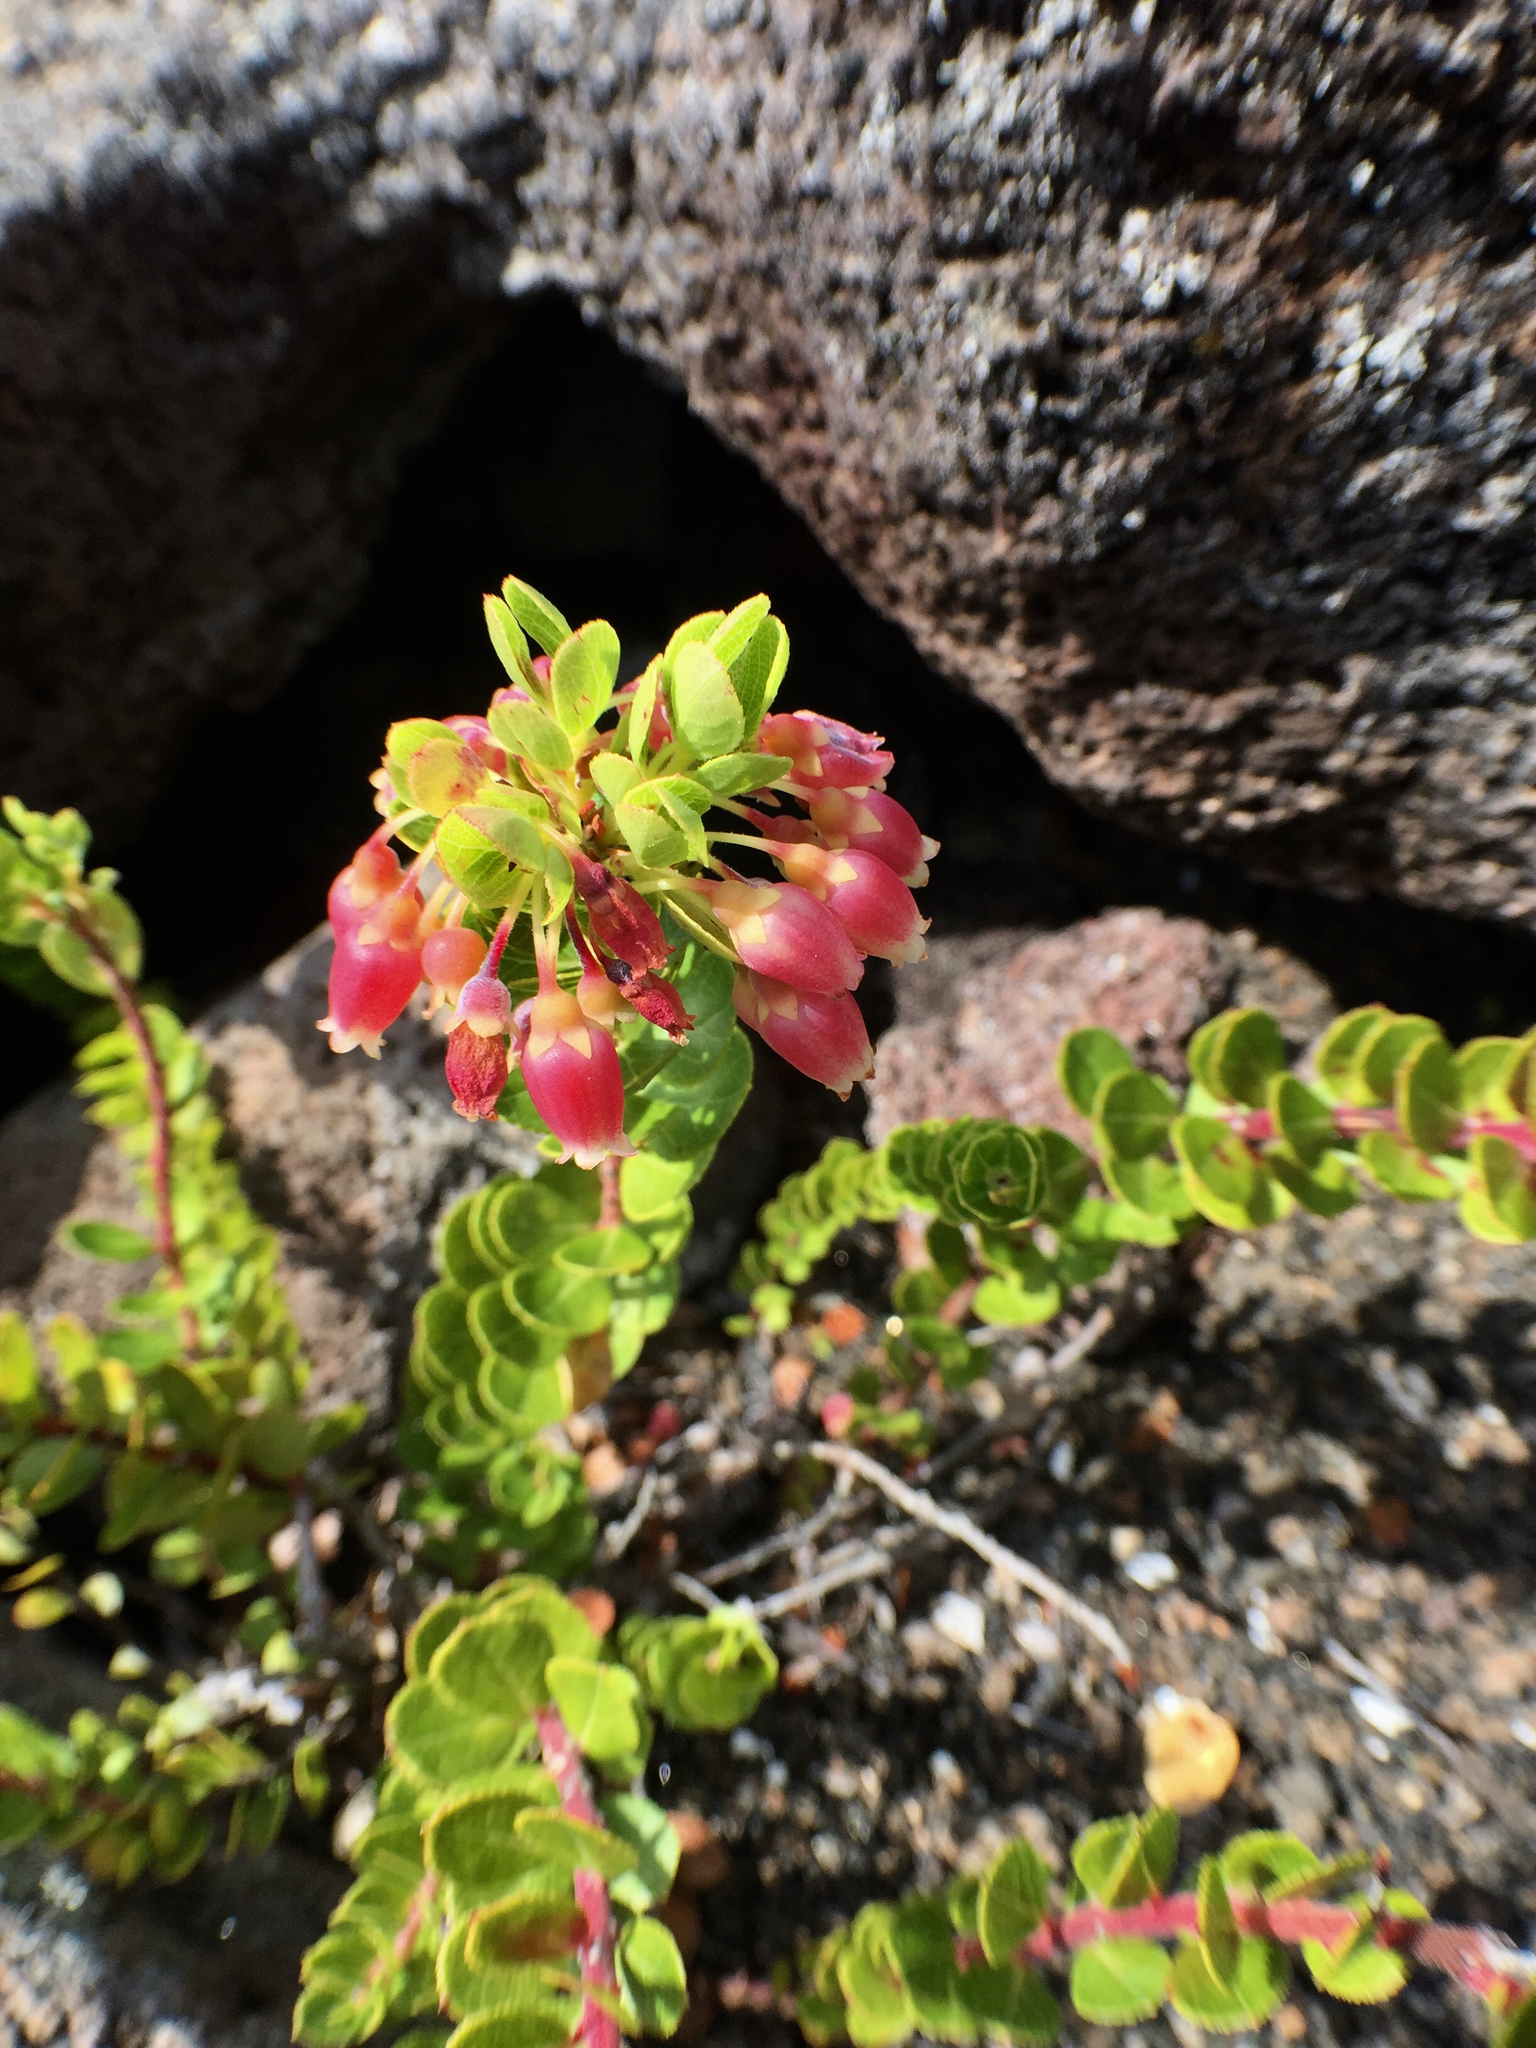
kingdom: Plantae
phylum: Tracheophyta
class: Magnoliopsida
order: Ericales
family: Ericaceae
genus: Vaccinium
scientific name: Vaccinium reticulatum
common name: Ohelo
